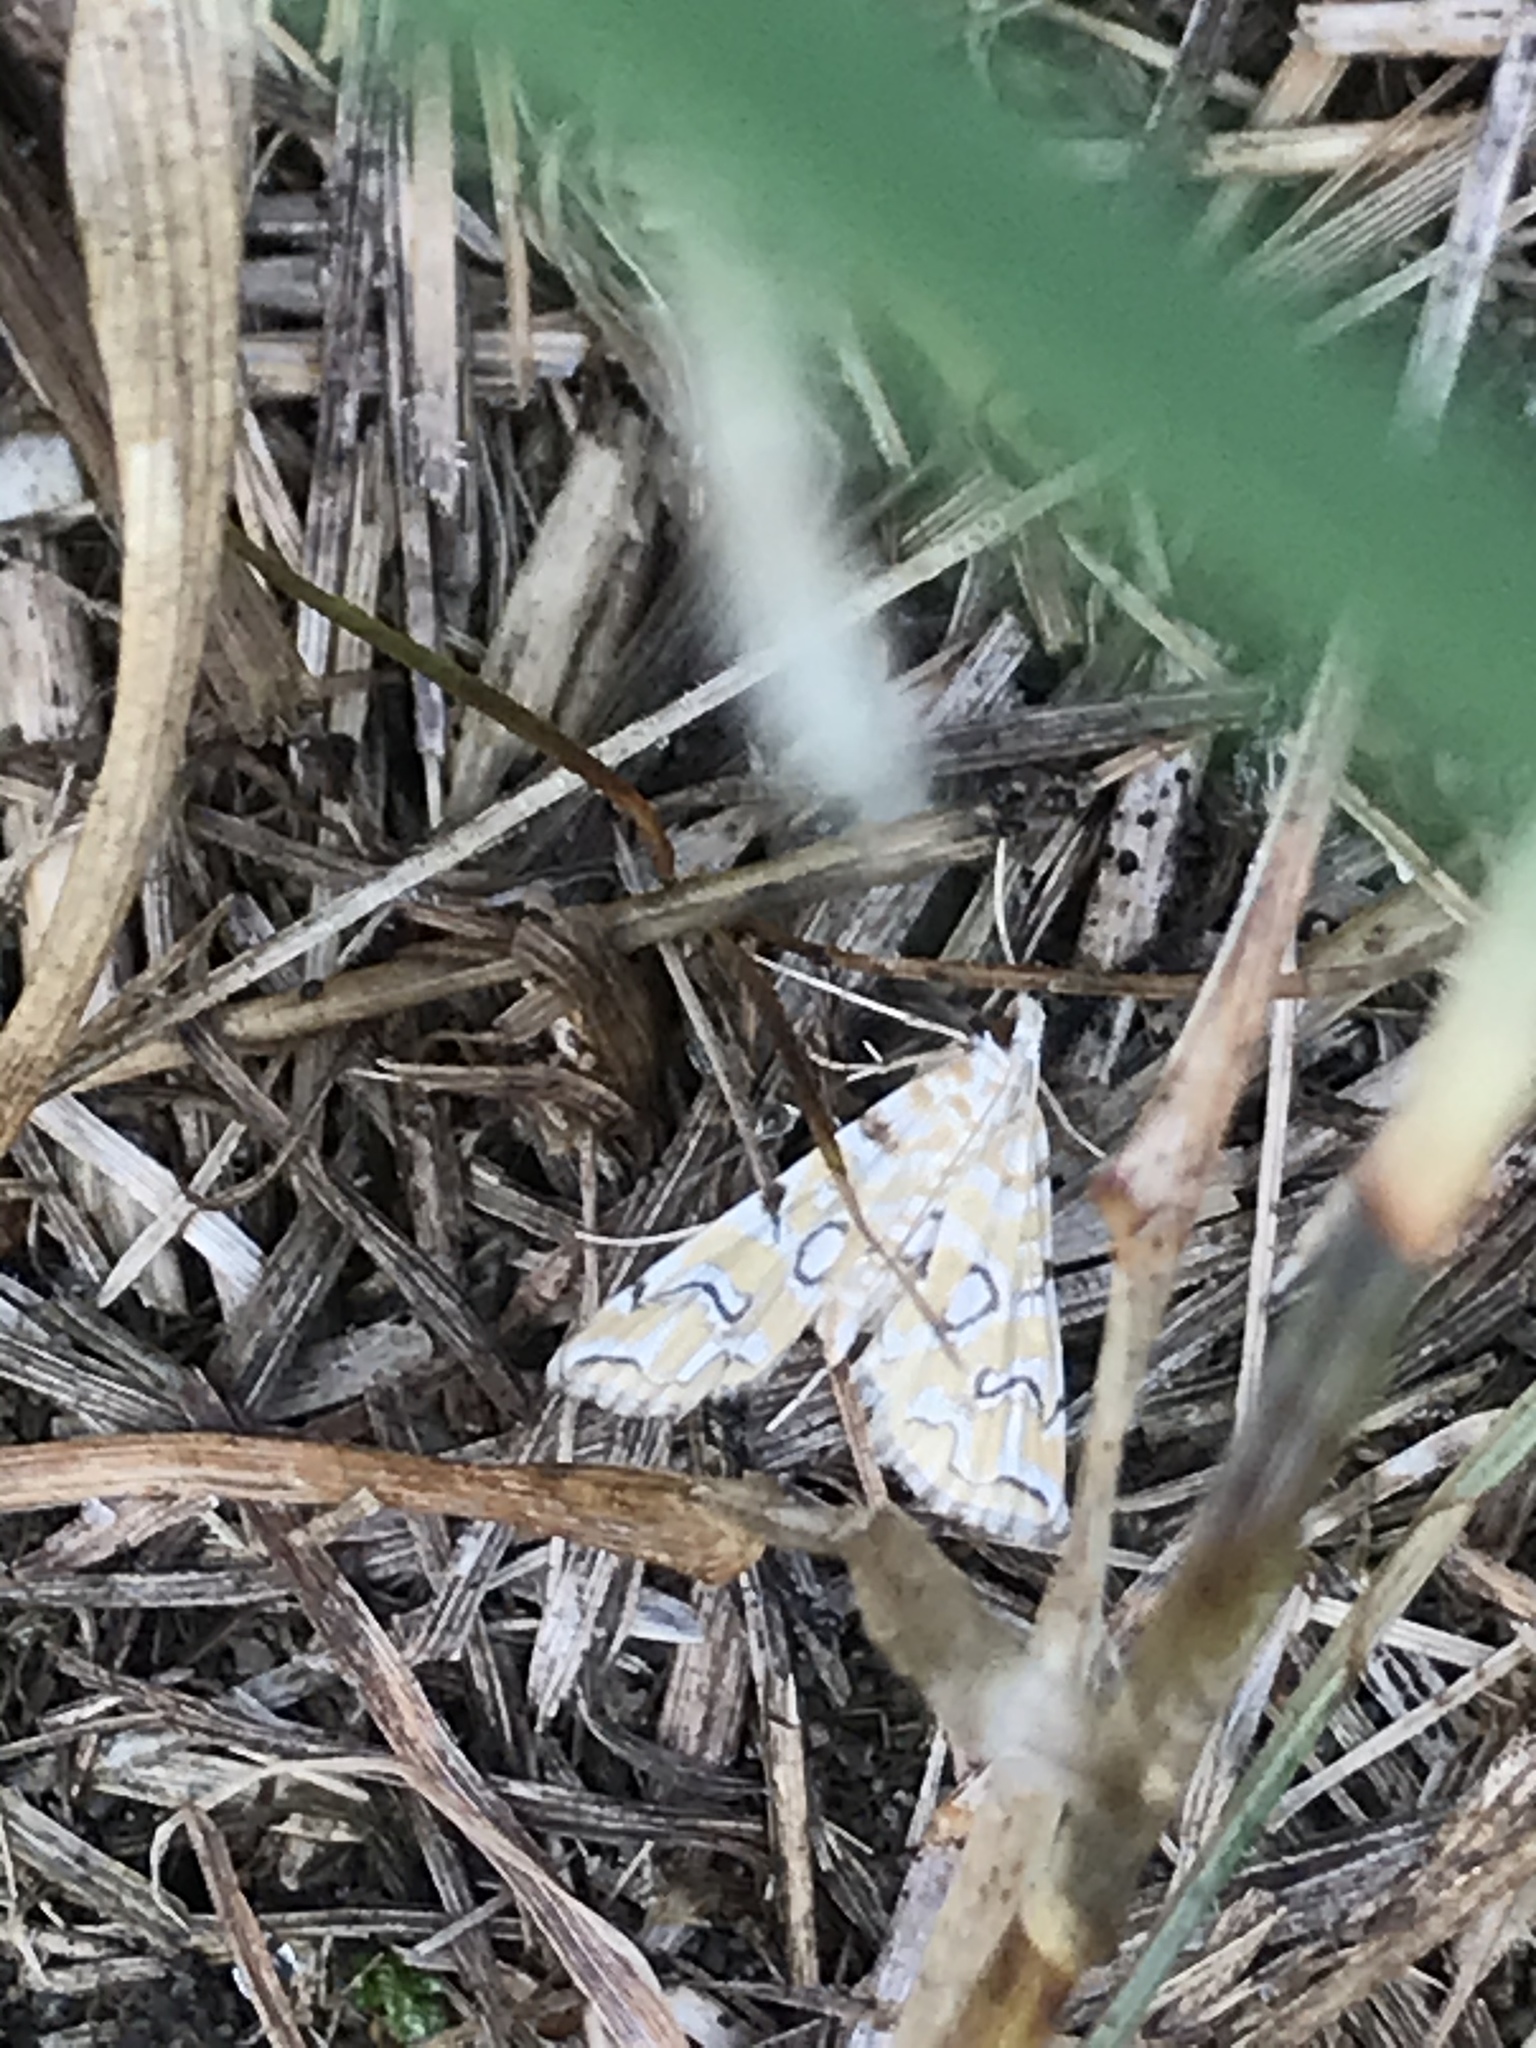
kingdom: Animalia
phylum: Arthropoda
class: Insecta
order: Lepidoptera
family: Crambidae
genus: Elophila
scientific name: Elophila icciusalis
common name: Pondside pyralid moth
